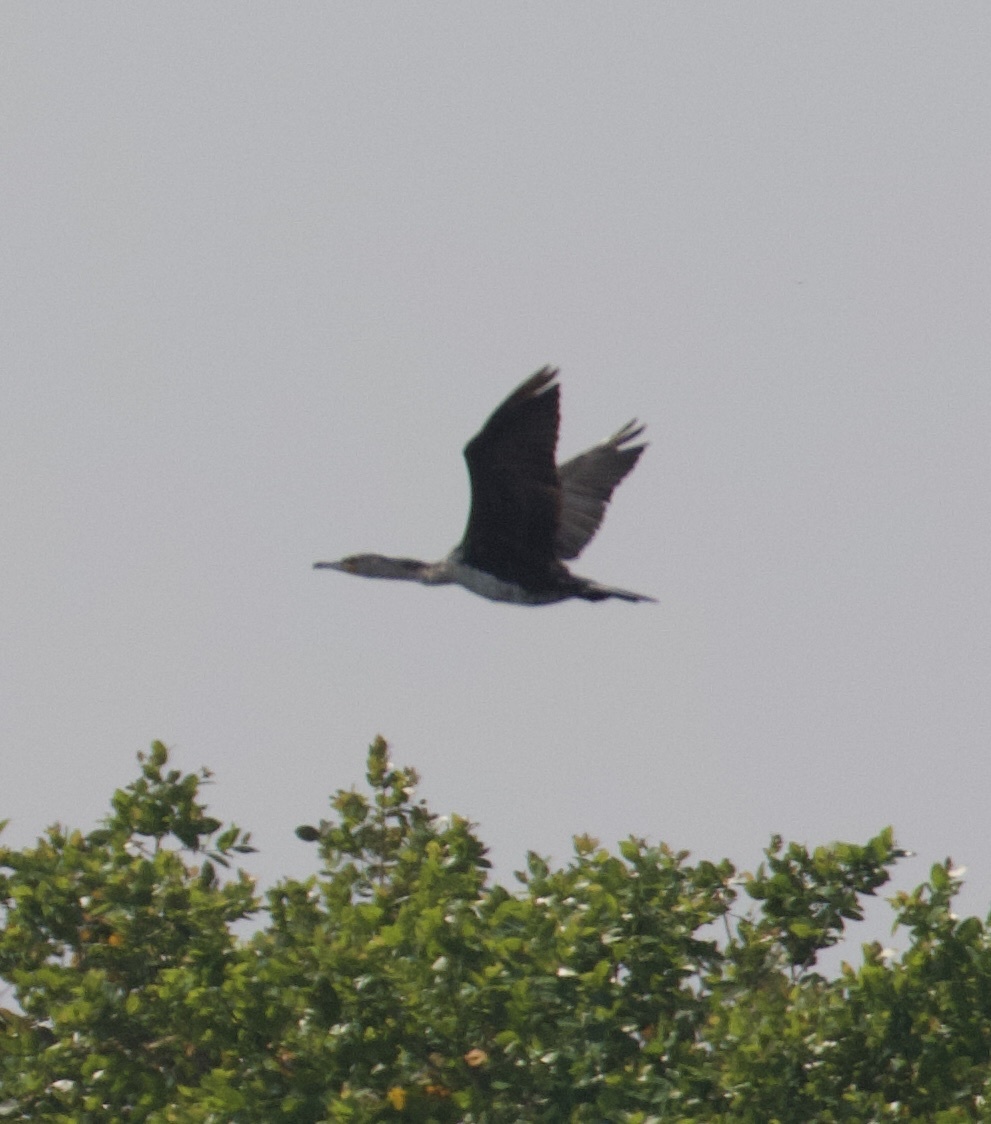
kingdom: Animalia
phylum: Chordata
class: Aves
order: Suliformes
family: Phalacrocoracidae
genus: Phalacrocorax
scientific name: Phalacrocorax carbo
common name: Great cormorant
